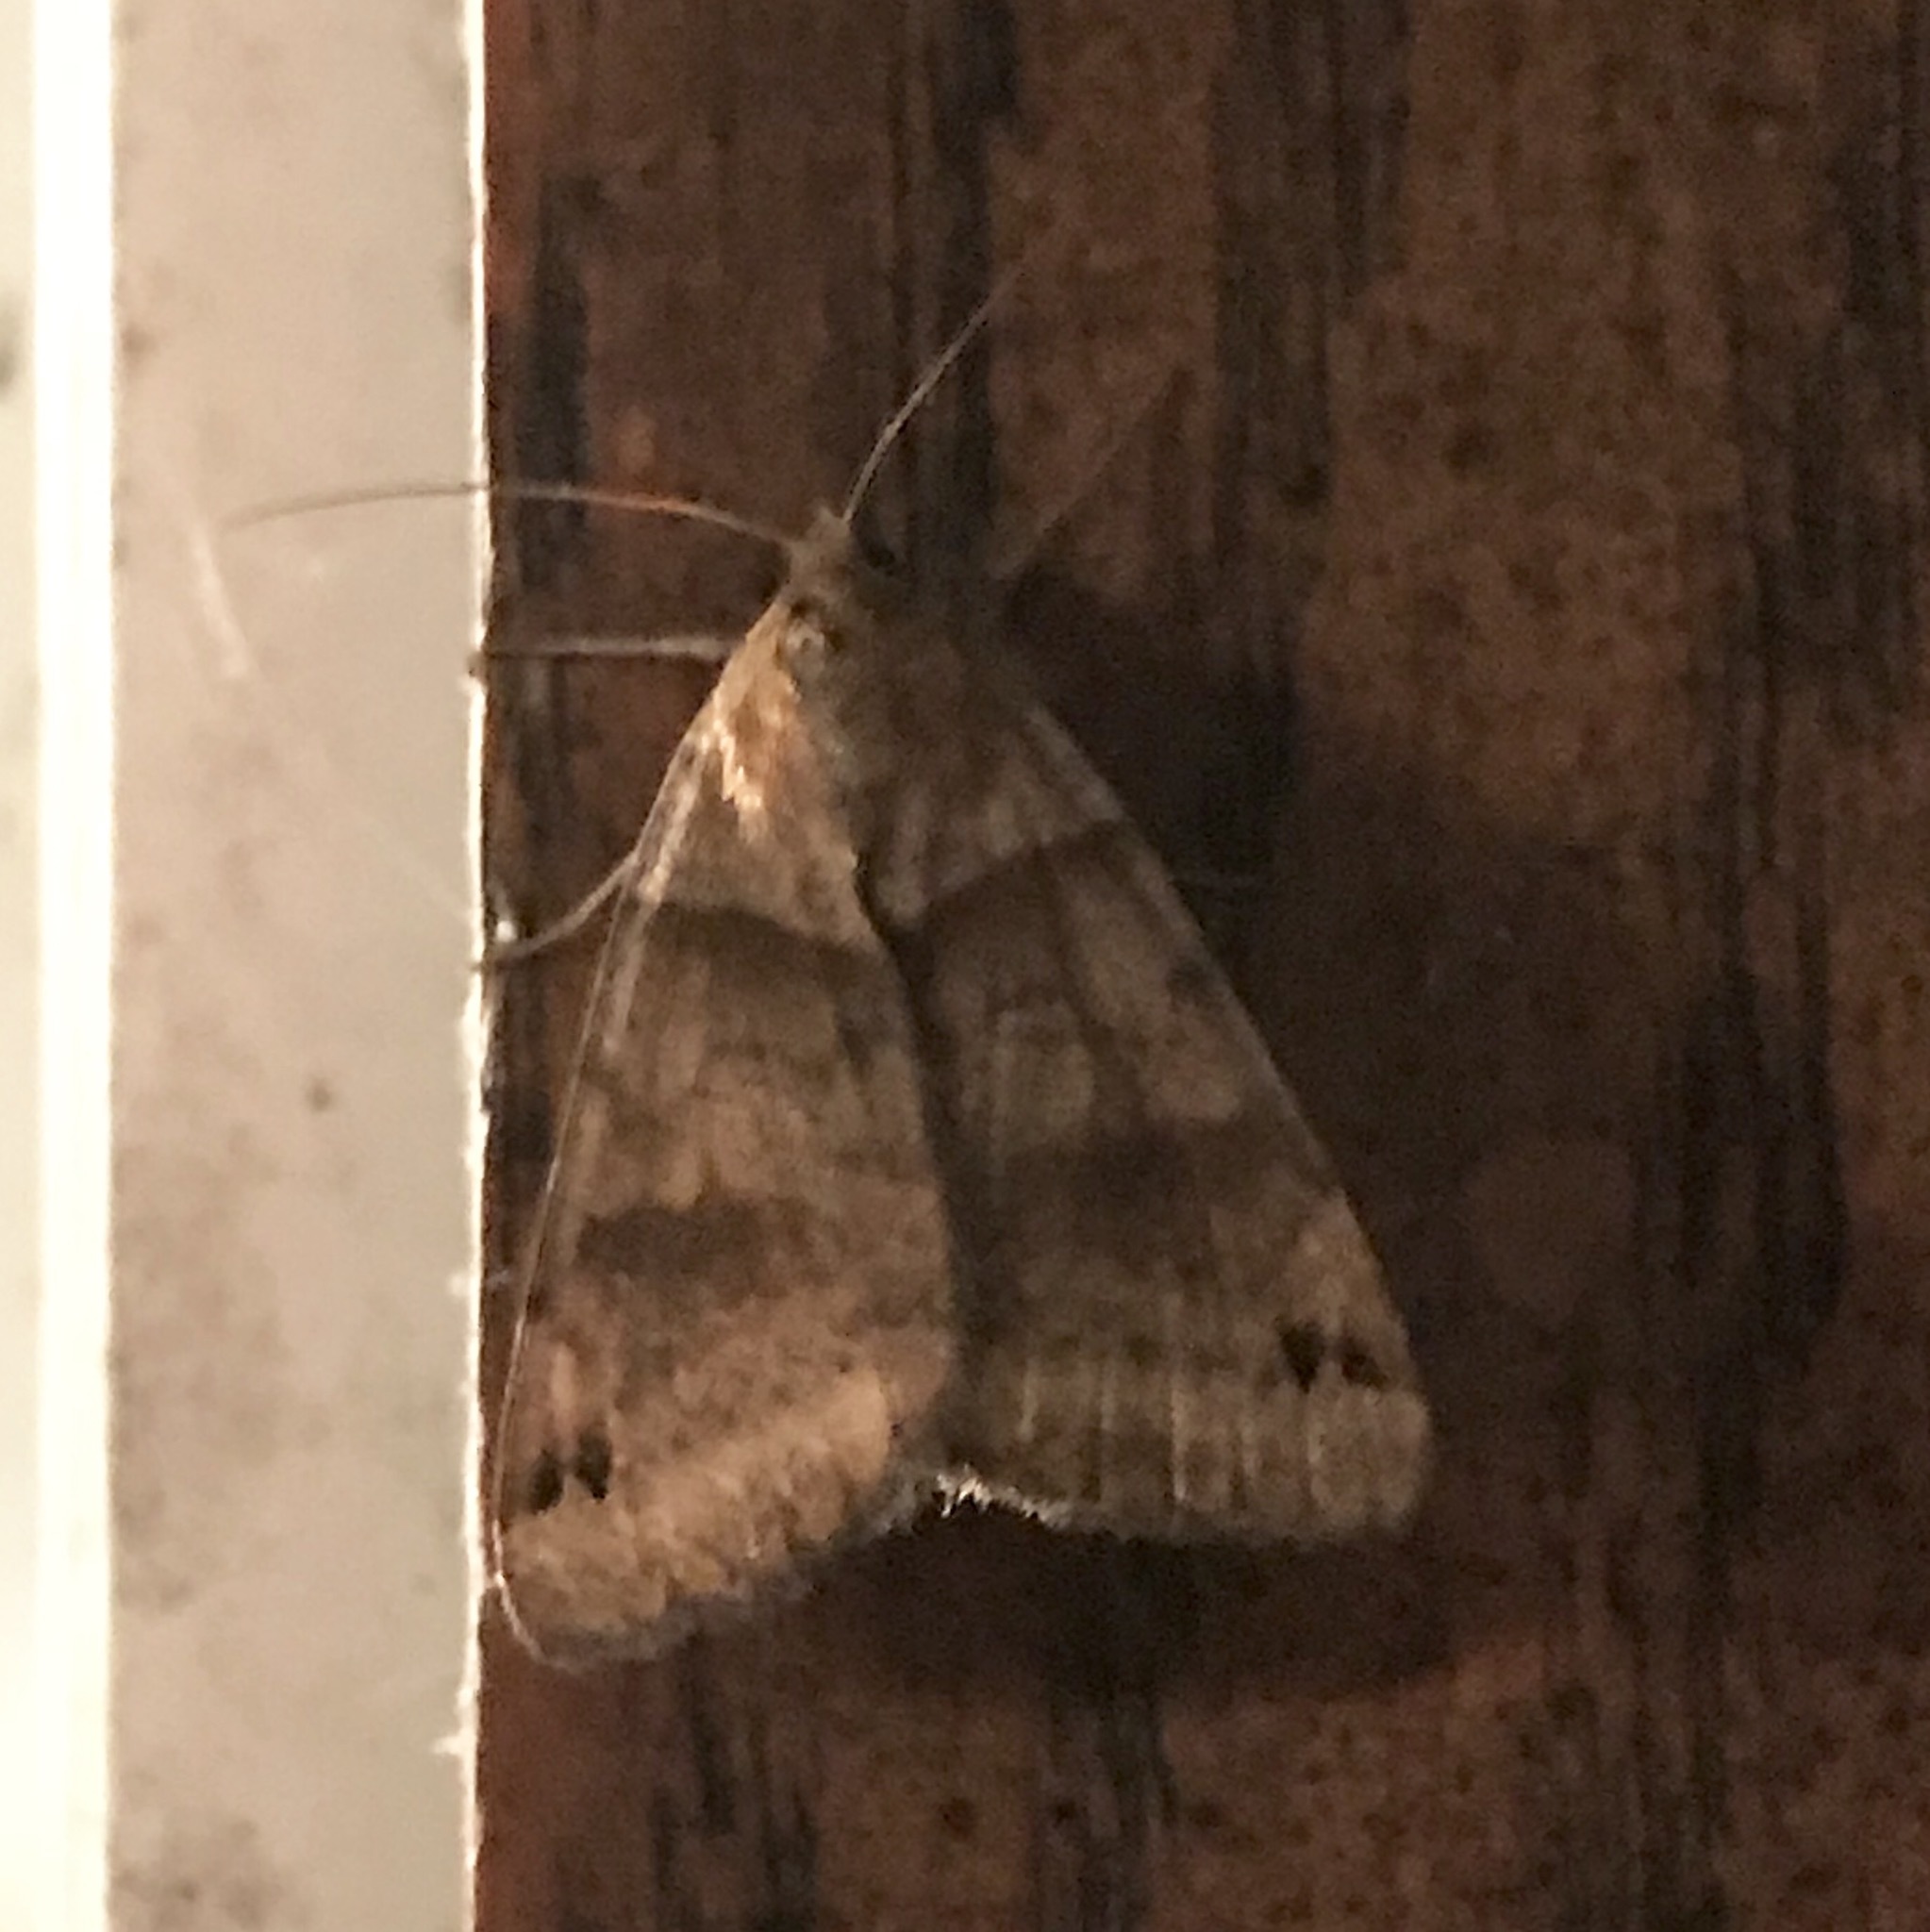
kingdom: Animalia
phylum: Arthropoda
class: Insecta
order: Lepidoptera
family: Erebidae
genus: Caenurgina
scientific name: Caenurgina crassiuscula
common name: Double-barred
